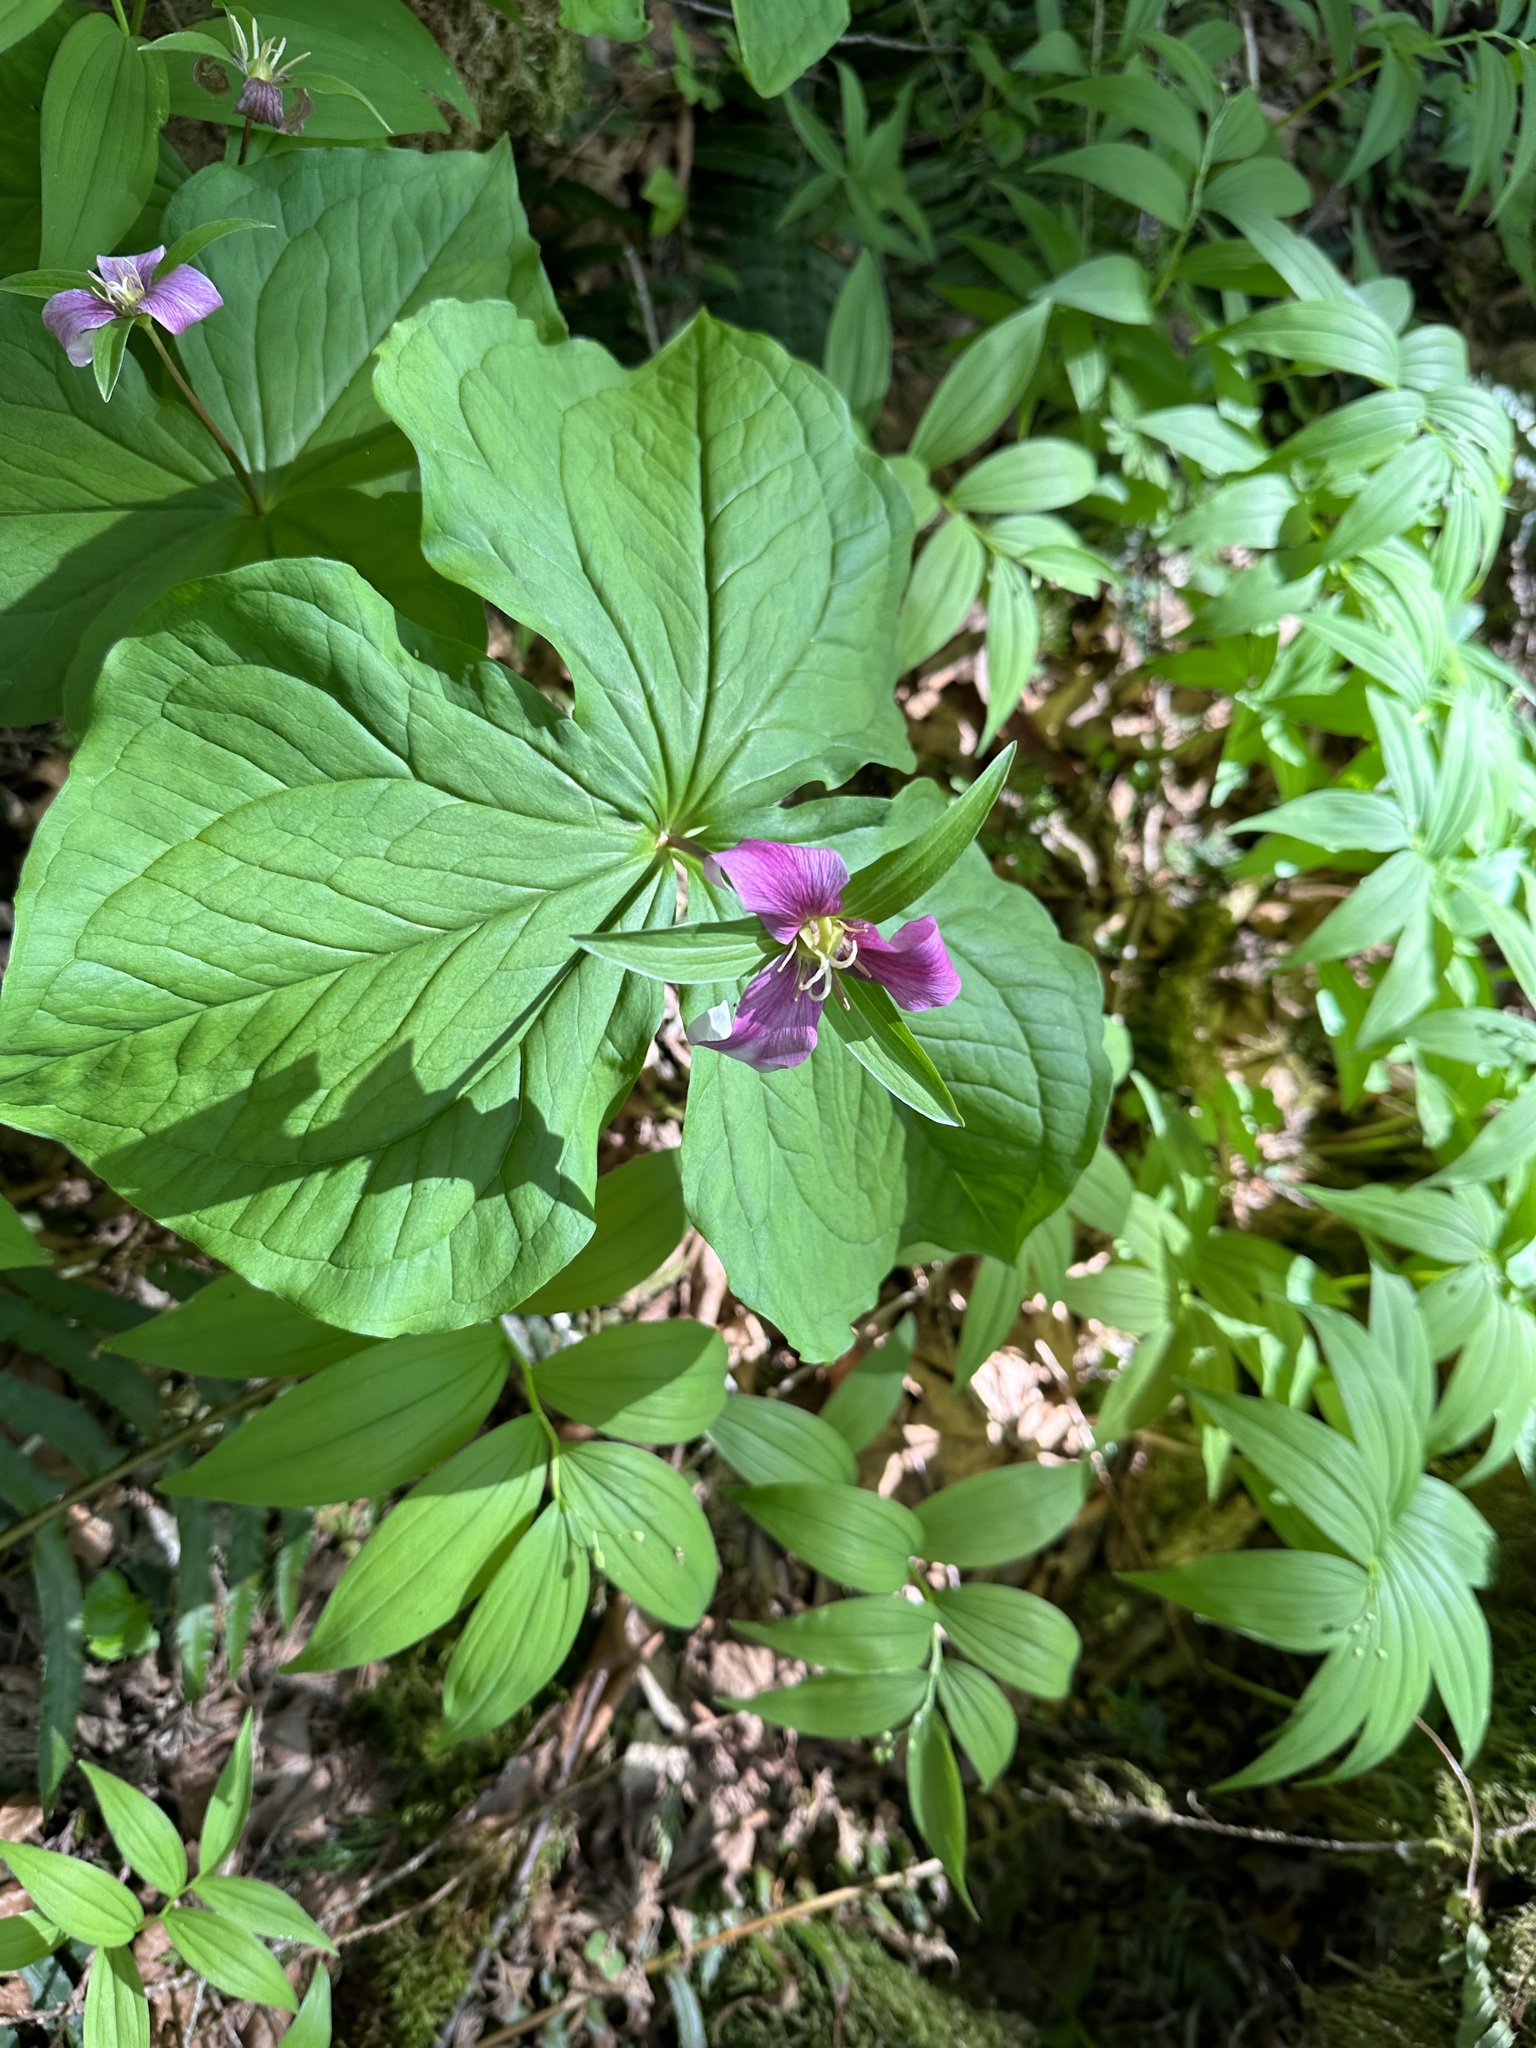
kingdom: Plantae
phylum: Tracheophyta
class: Liliopsida
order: Liliales
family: Melanthiaceae
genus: Trillium
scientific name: Trillium ovatum
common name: Pacific trillium
